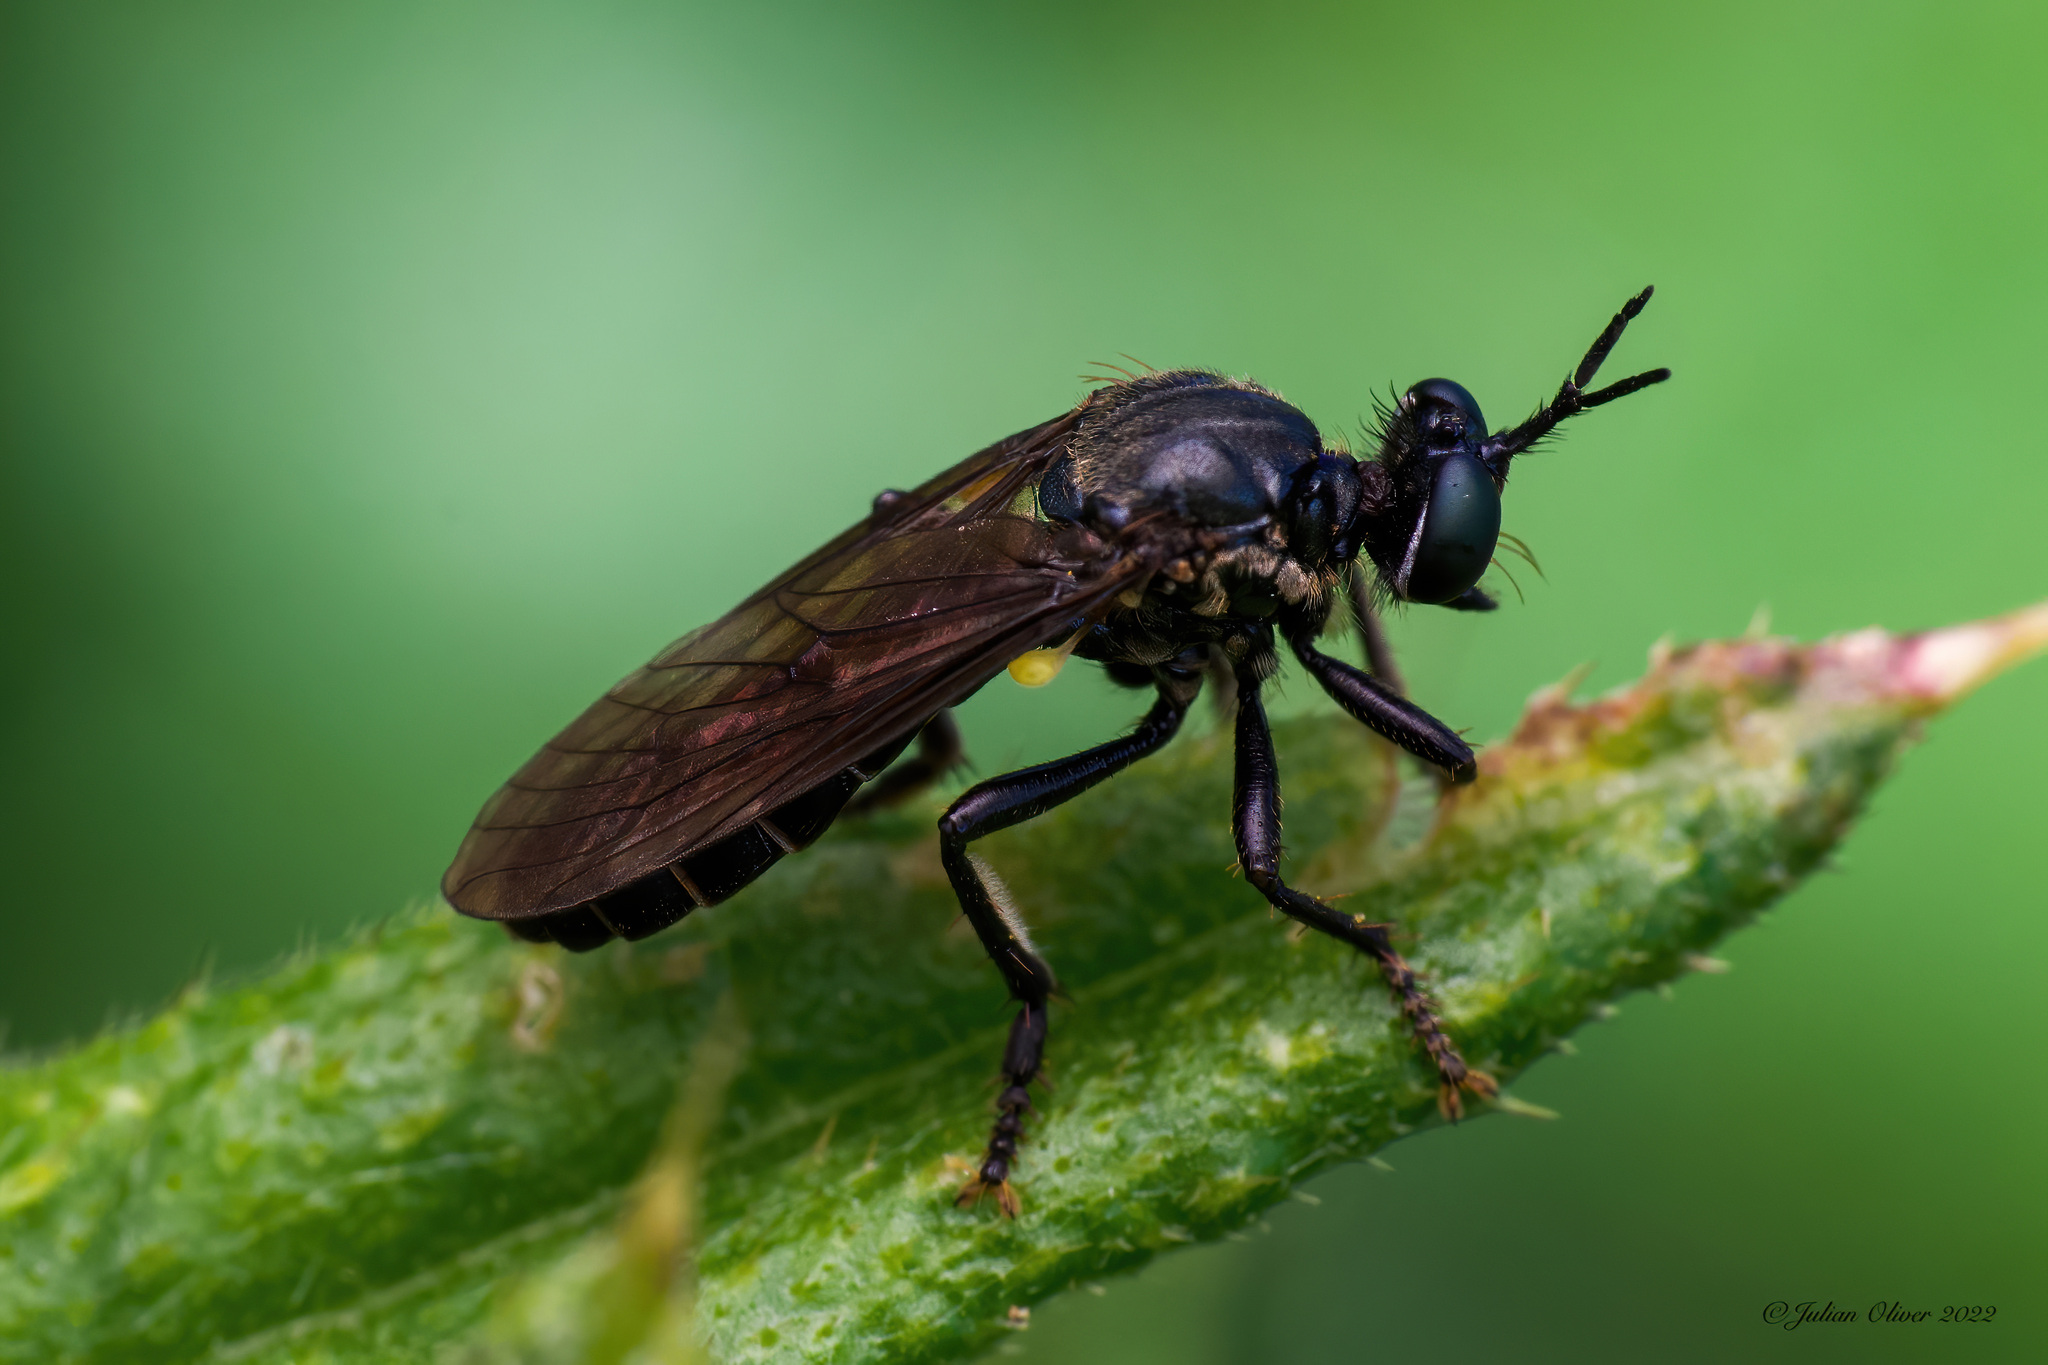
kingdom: Animalia
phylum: Arthropoda
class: Insecta
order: Diptera
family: Asilidae
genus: Dioctria
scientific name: Dioctria atricapilla
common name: Violet black-legged
